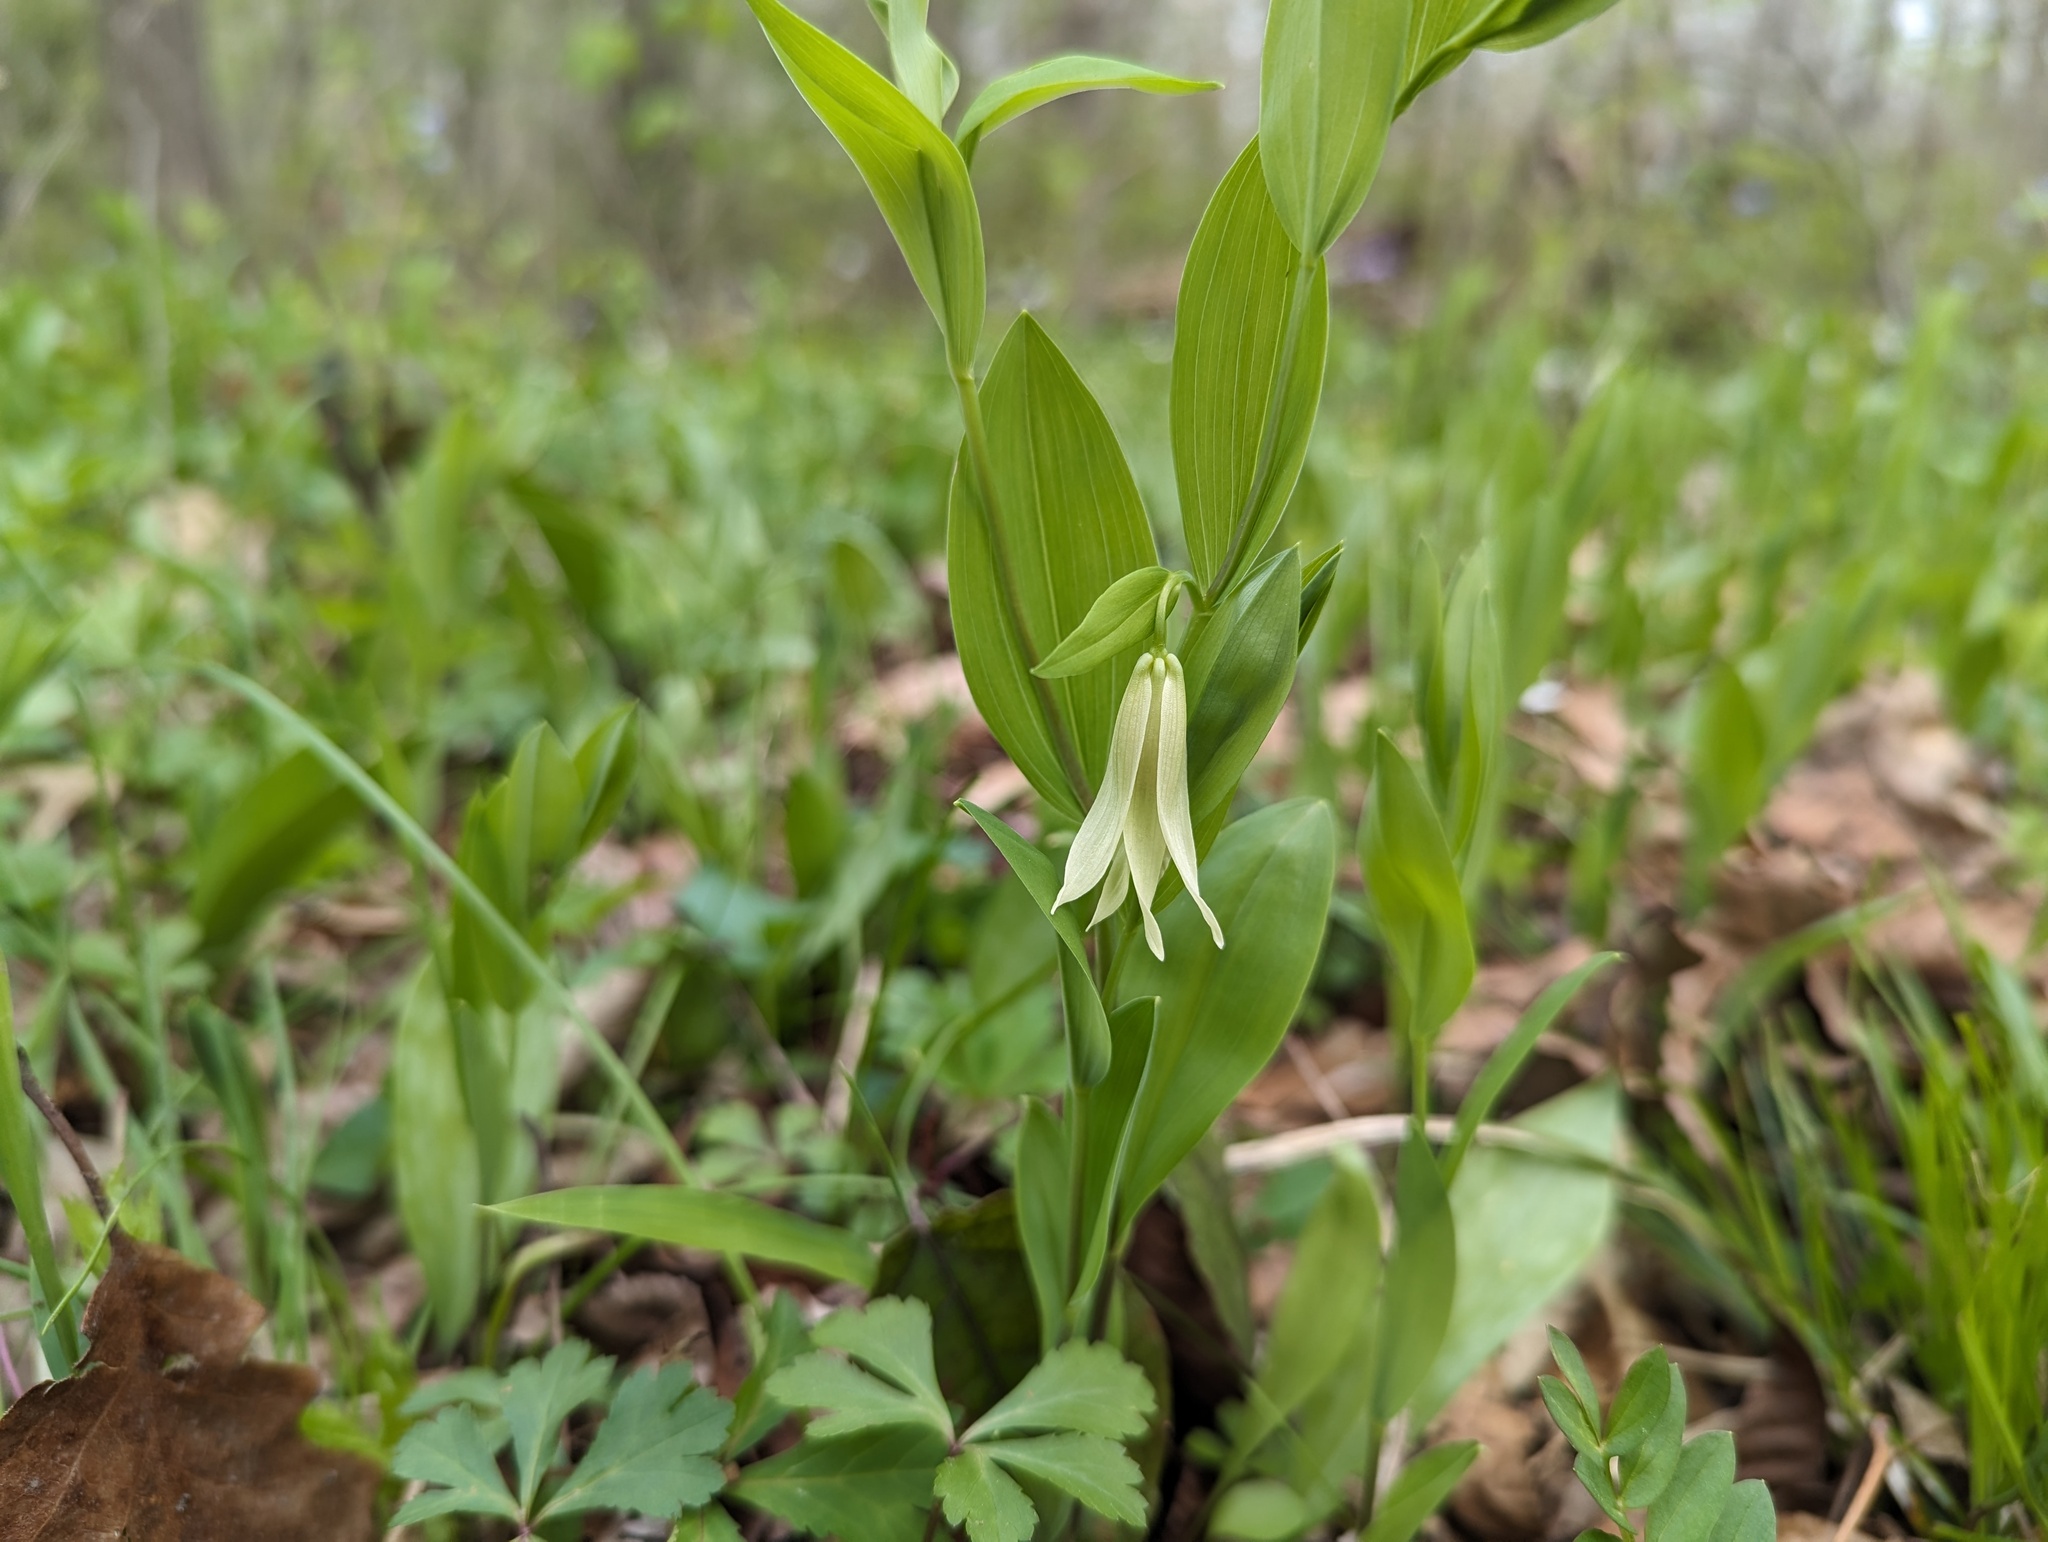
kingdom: Plantae
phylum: Tracheophyta
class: Liliopsida
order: Liliales
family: Colchicaceae
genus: Uvularia
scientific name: Uvularia floridana
